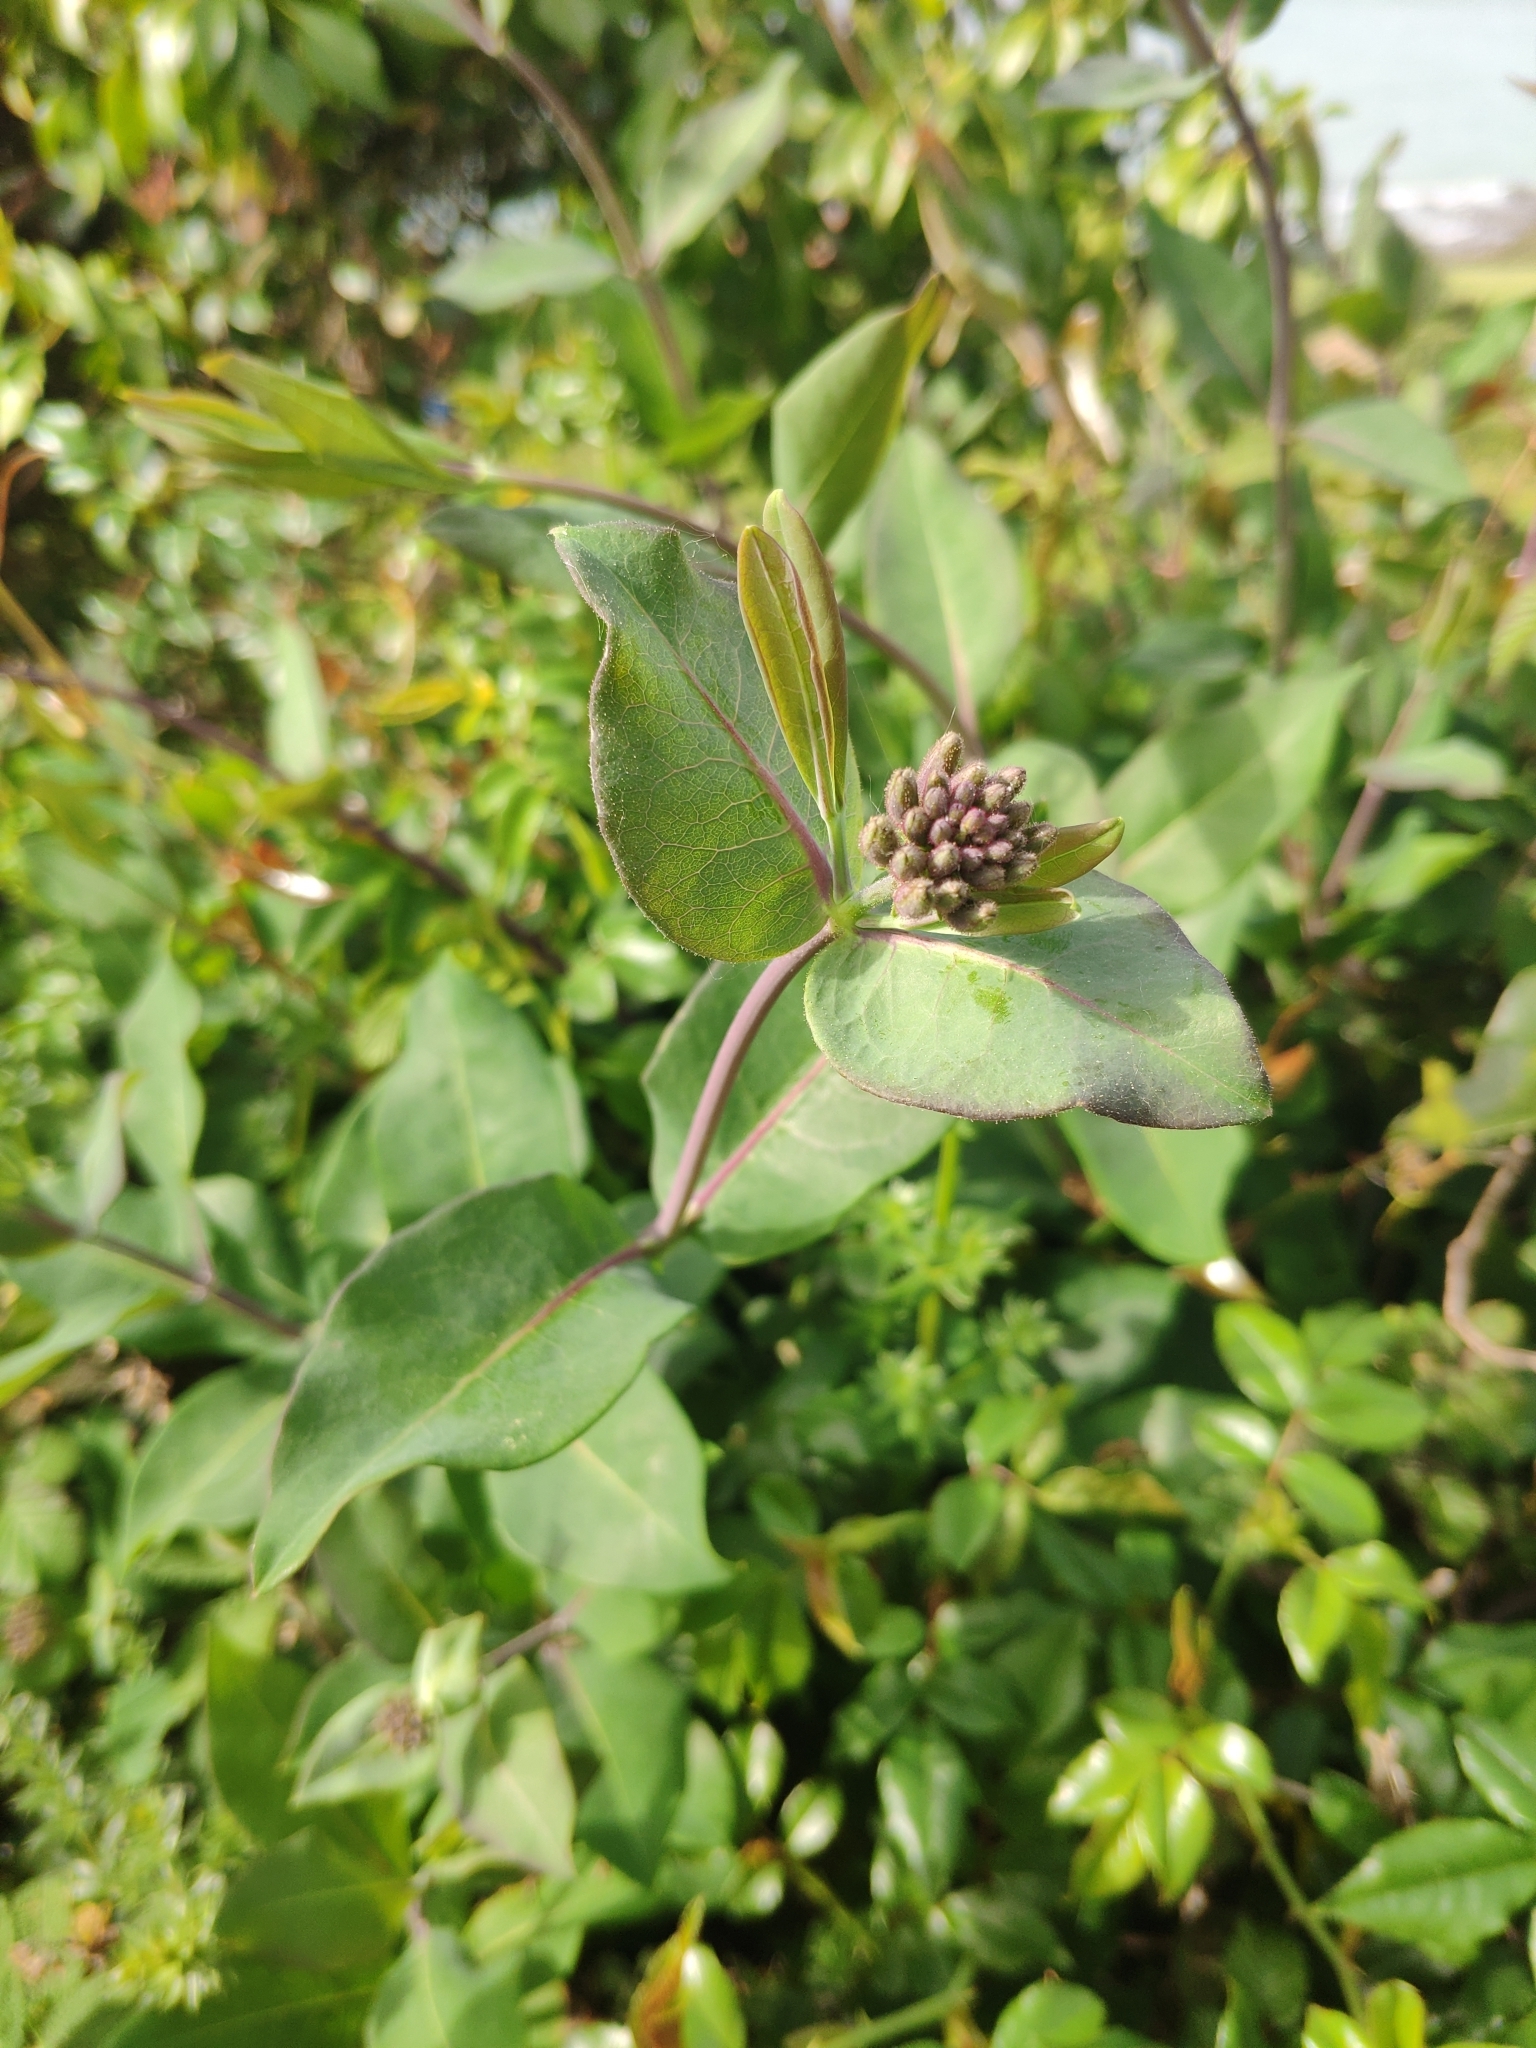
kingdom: Plantae
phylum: Tracheophyta
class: Magnoliopsida
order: Dipsacales
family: Caprifoliaceae
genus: Lonicera
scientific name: Lonicera periclymenum
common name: European honeysuckle
